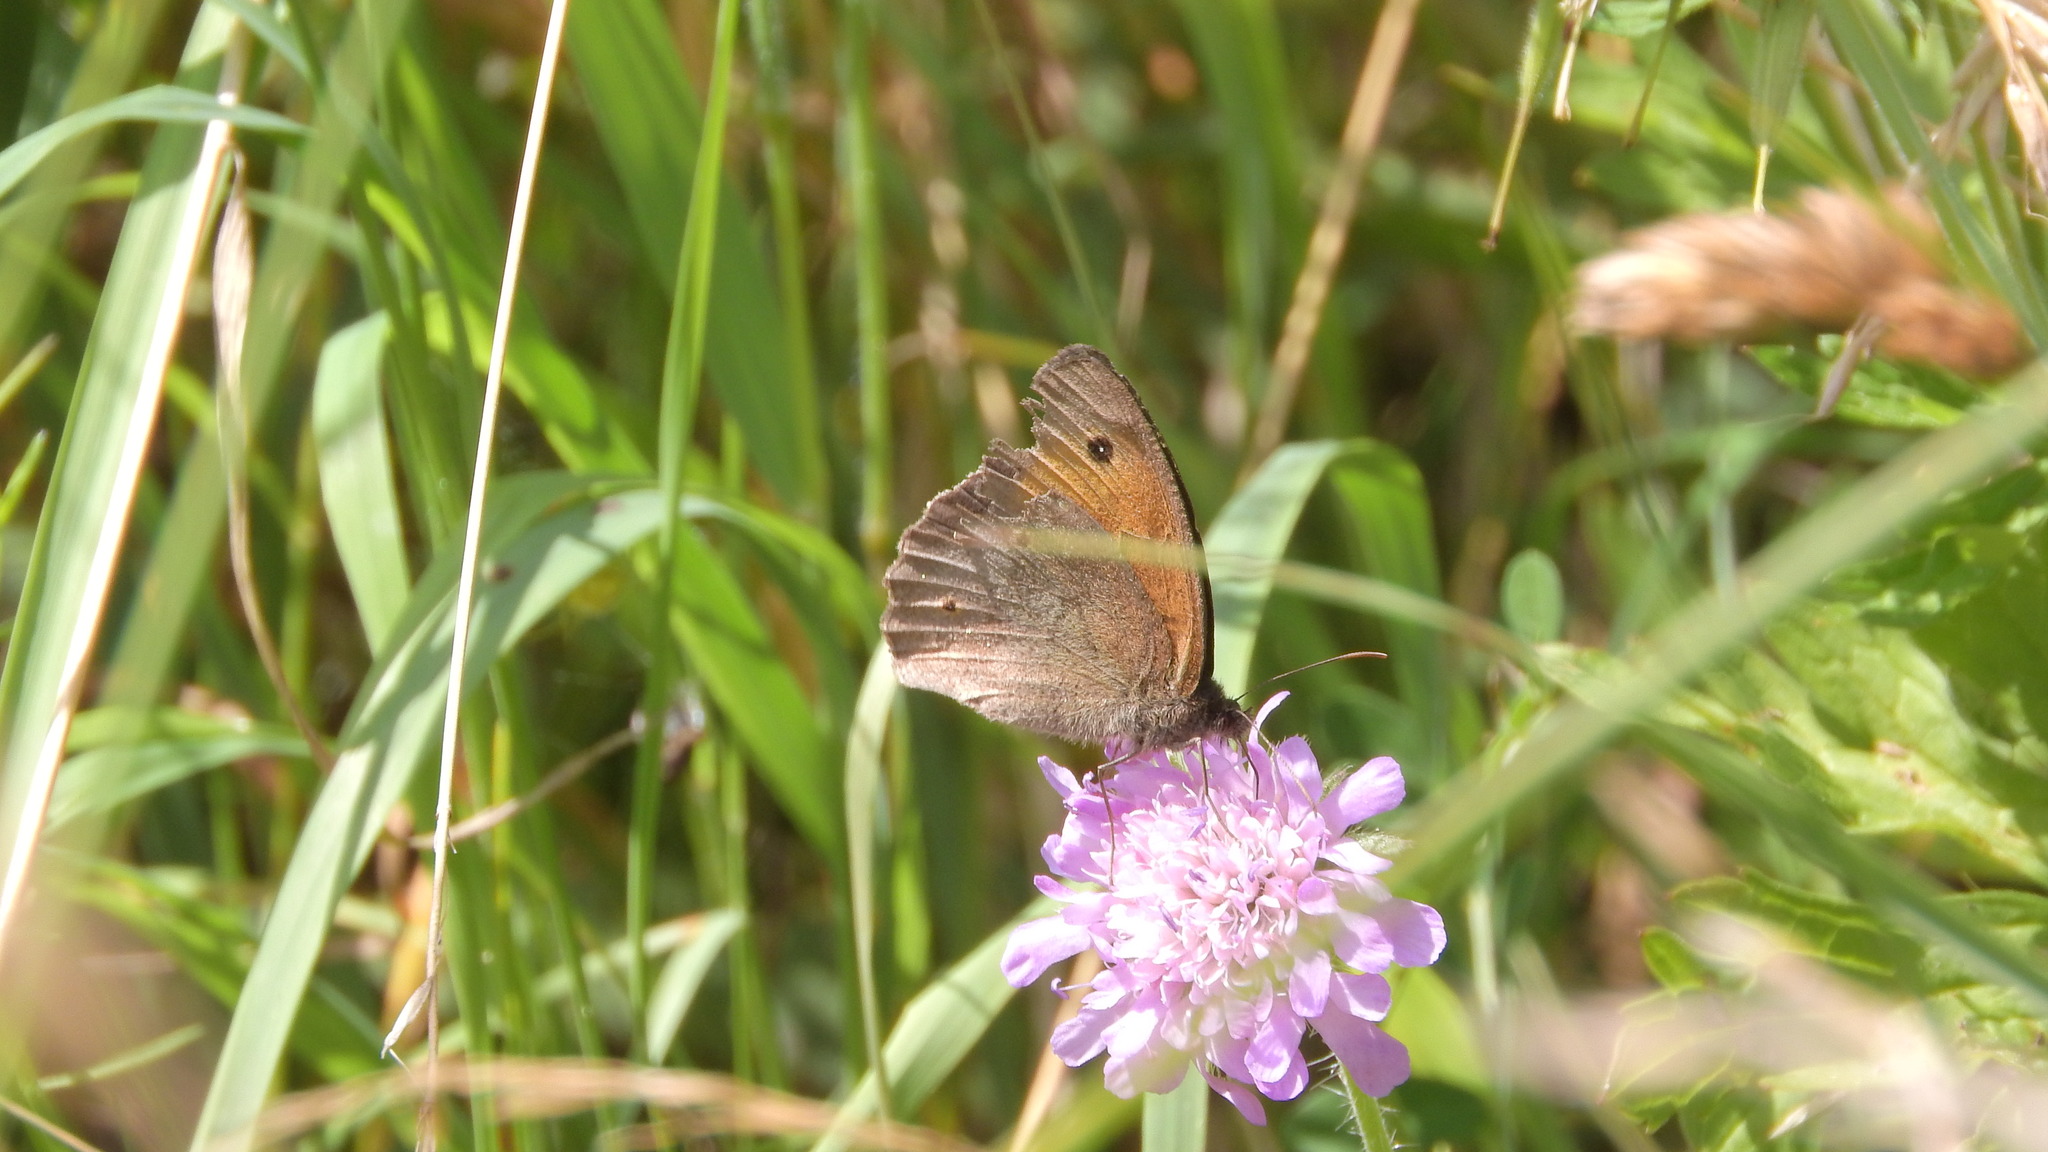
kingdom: Animalia
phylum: Arthropoda
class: Insecta
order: Lepidoptera
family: Nymphalidae
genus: Maniola
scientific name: Maniola jurtina
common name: Meadow brown
